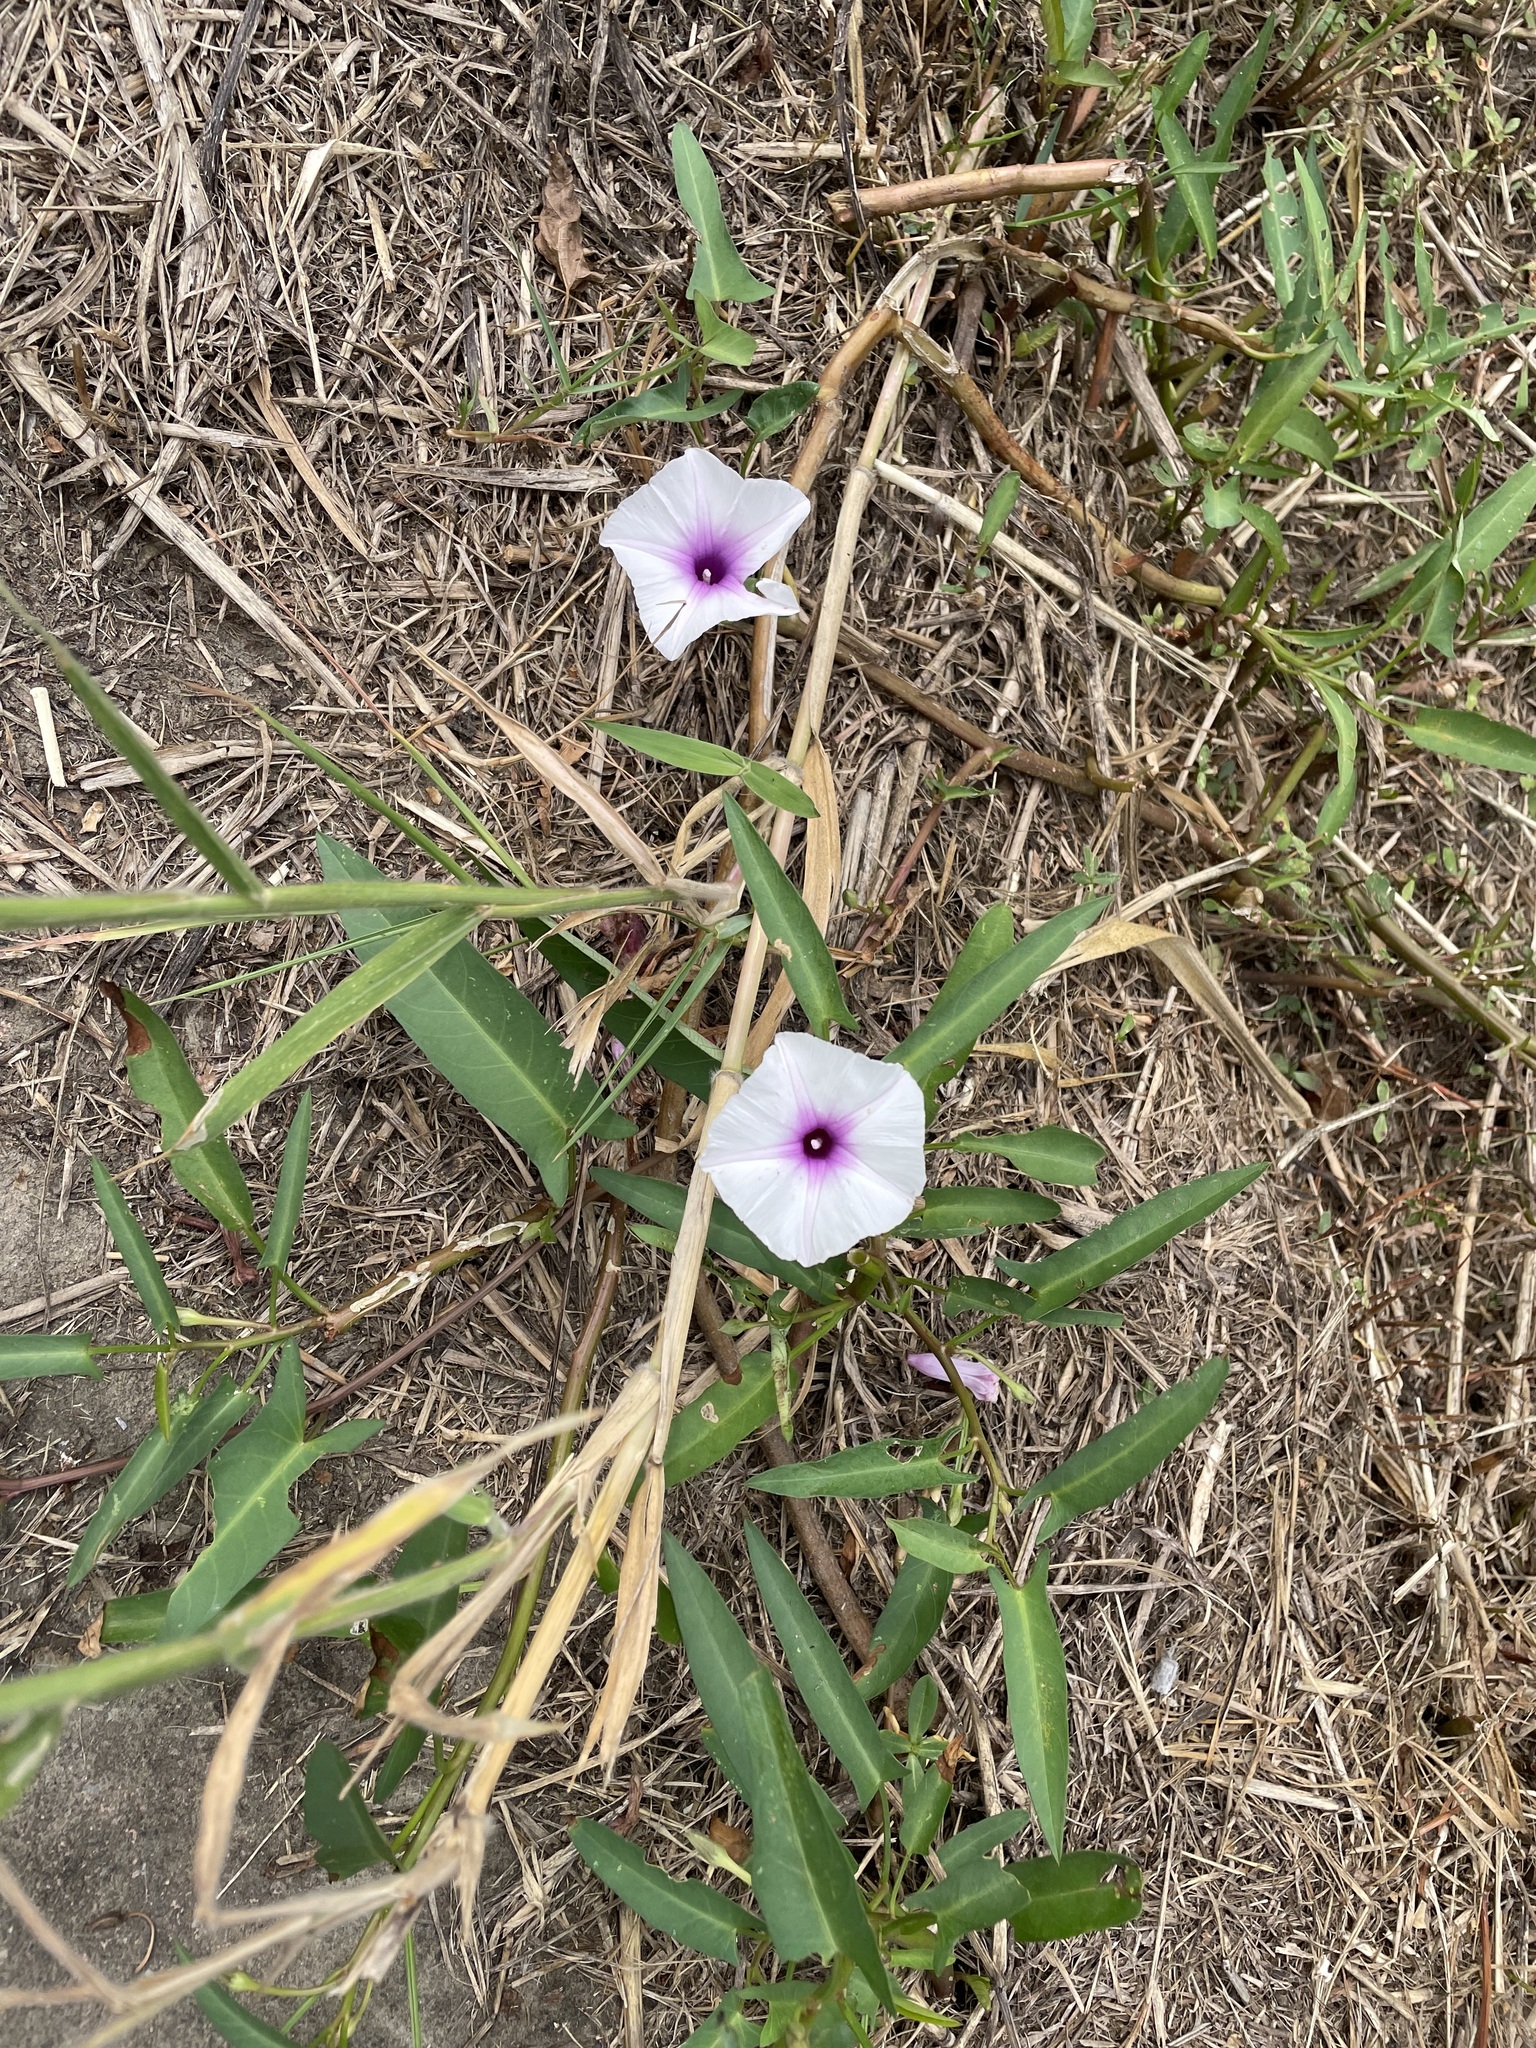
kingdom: Plantae
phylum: Tracheophyta
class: Magnoliopsida
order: Solanales
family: Convolvulaceae
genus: Ipomoea
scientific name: Ipomoea aquatica
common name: Swamp morning-glory
